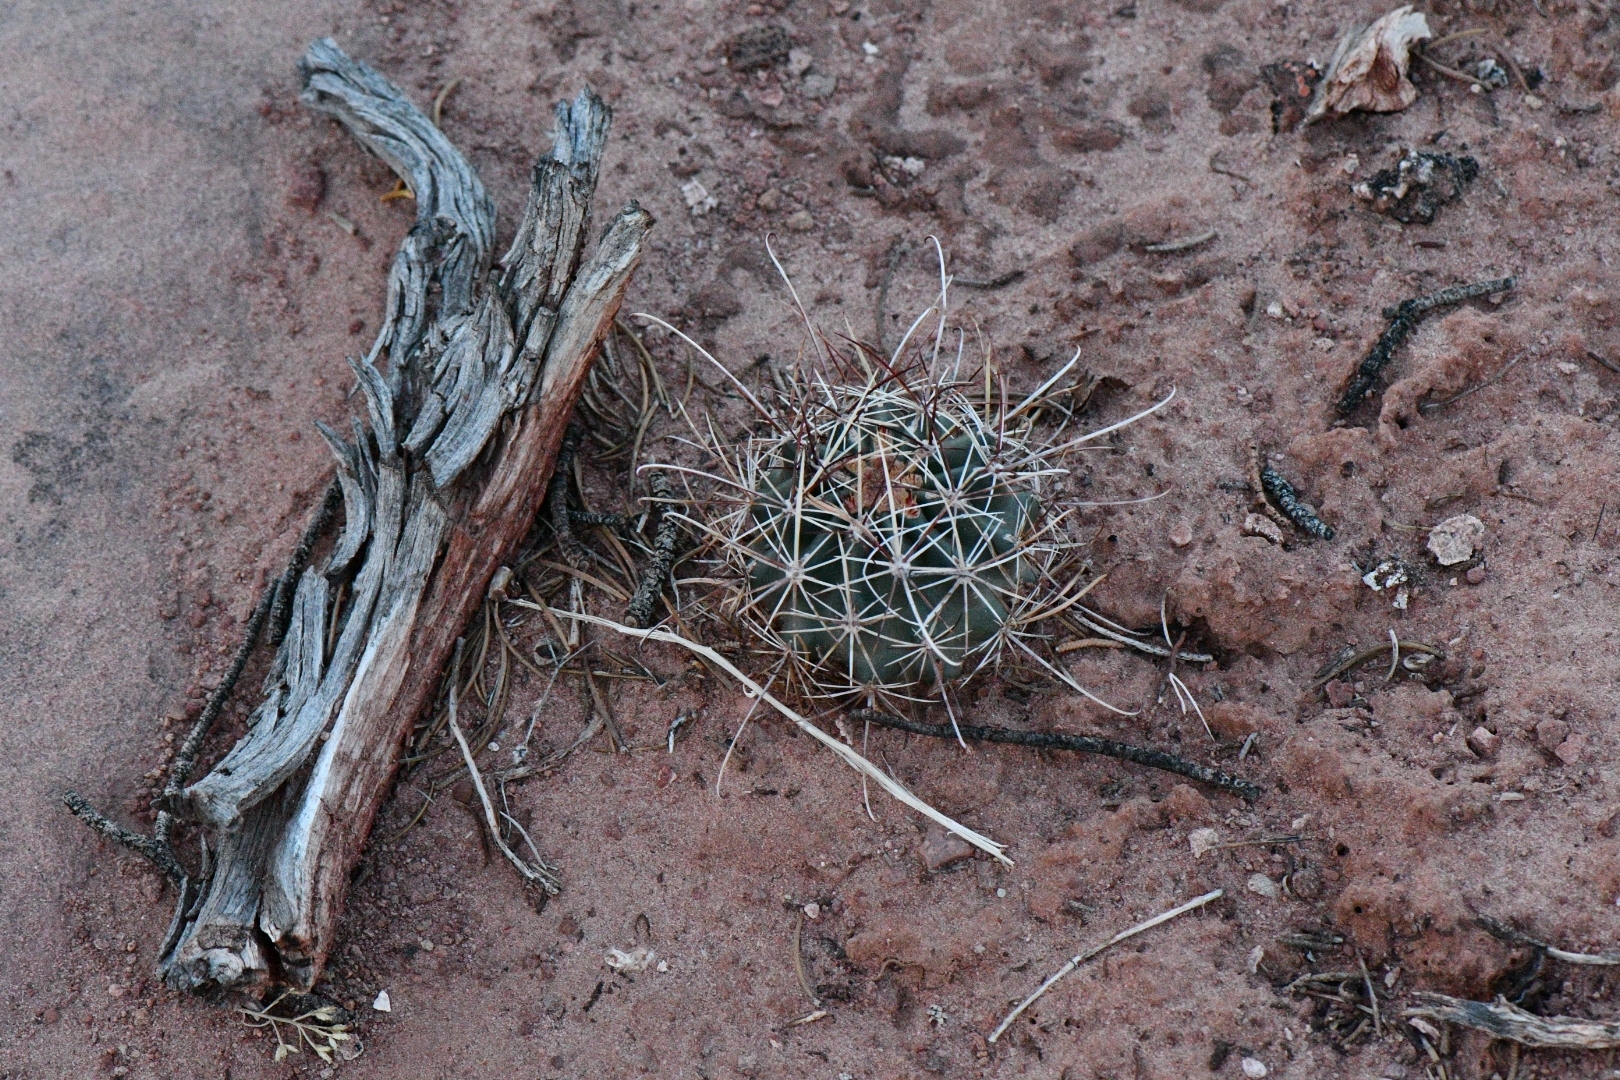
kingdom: Plantae
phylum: Tracheophyta
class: Magnoliopsida
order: Caryophyllales
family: Cactaceae
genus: Sclerocactus
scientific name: Sclerocactus parviflorus
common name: Small-flower fishhook cactus
